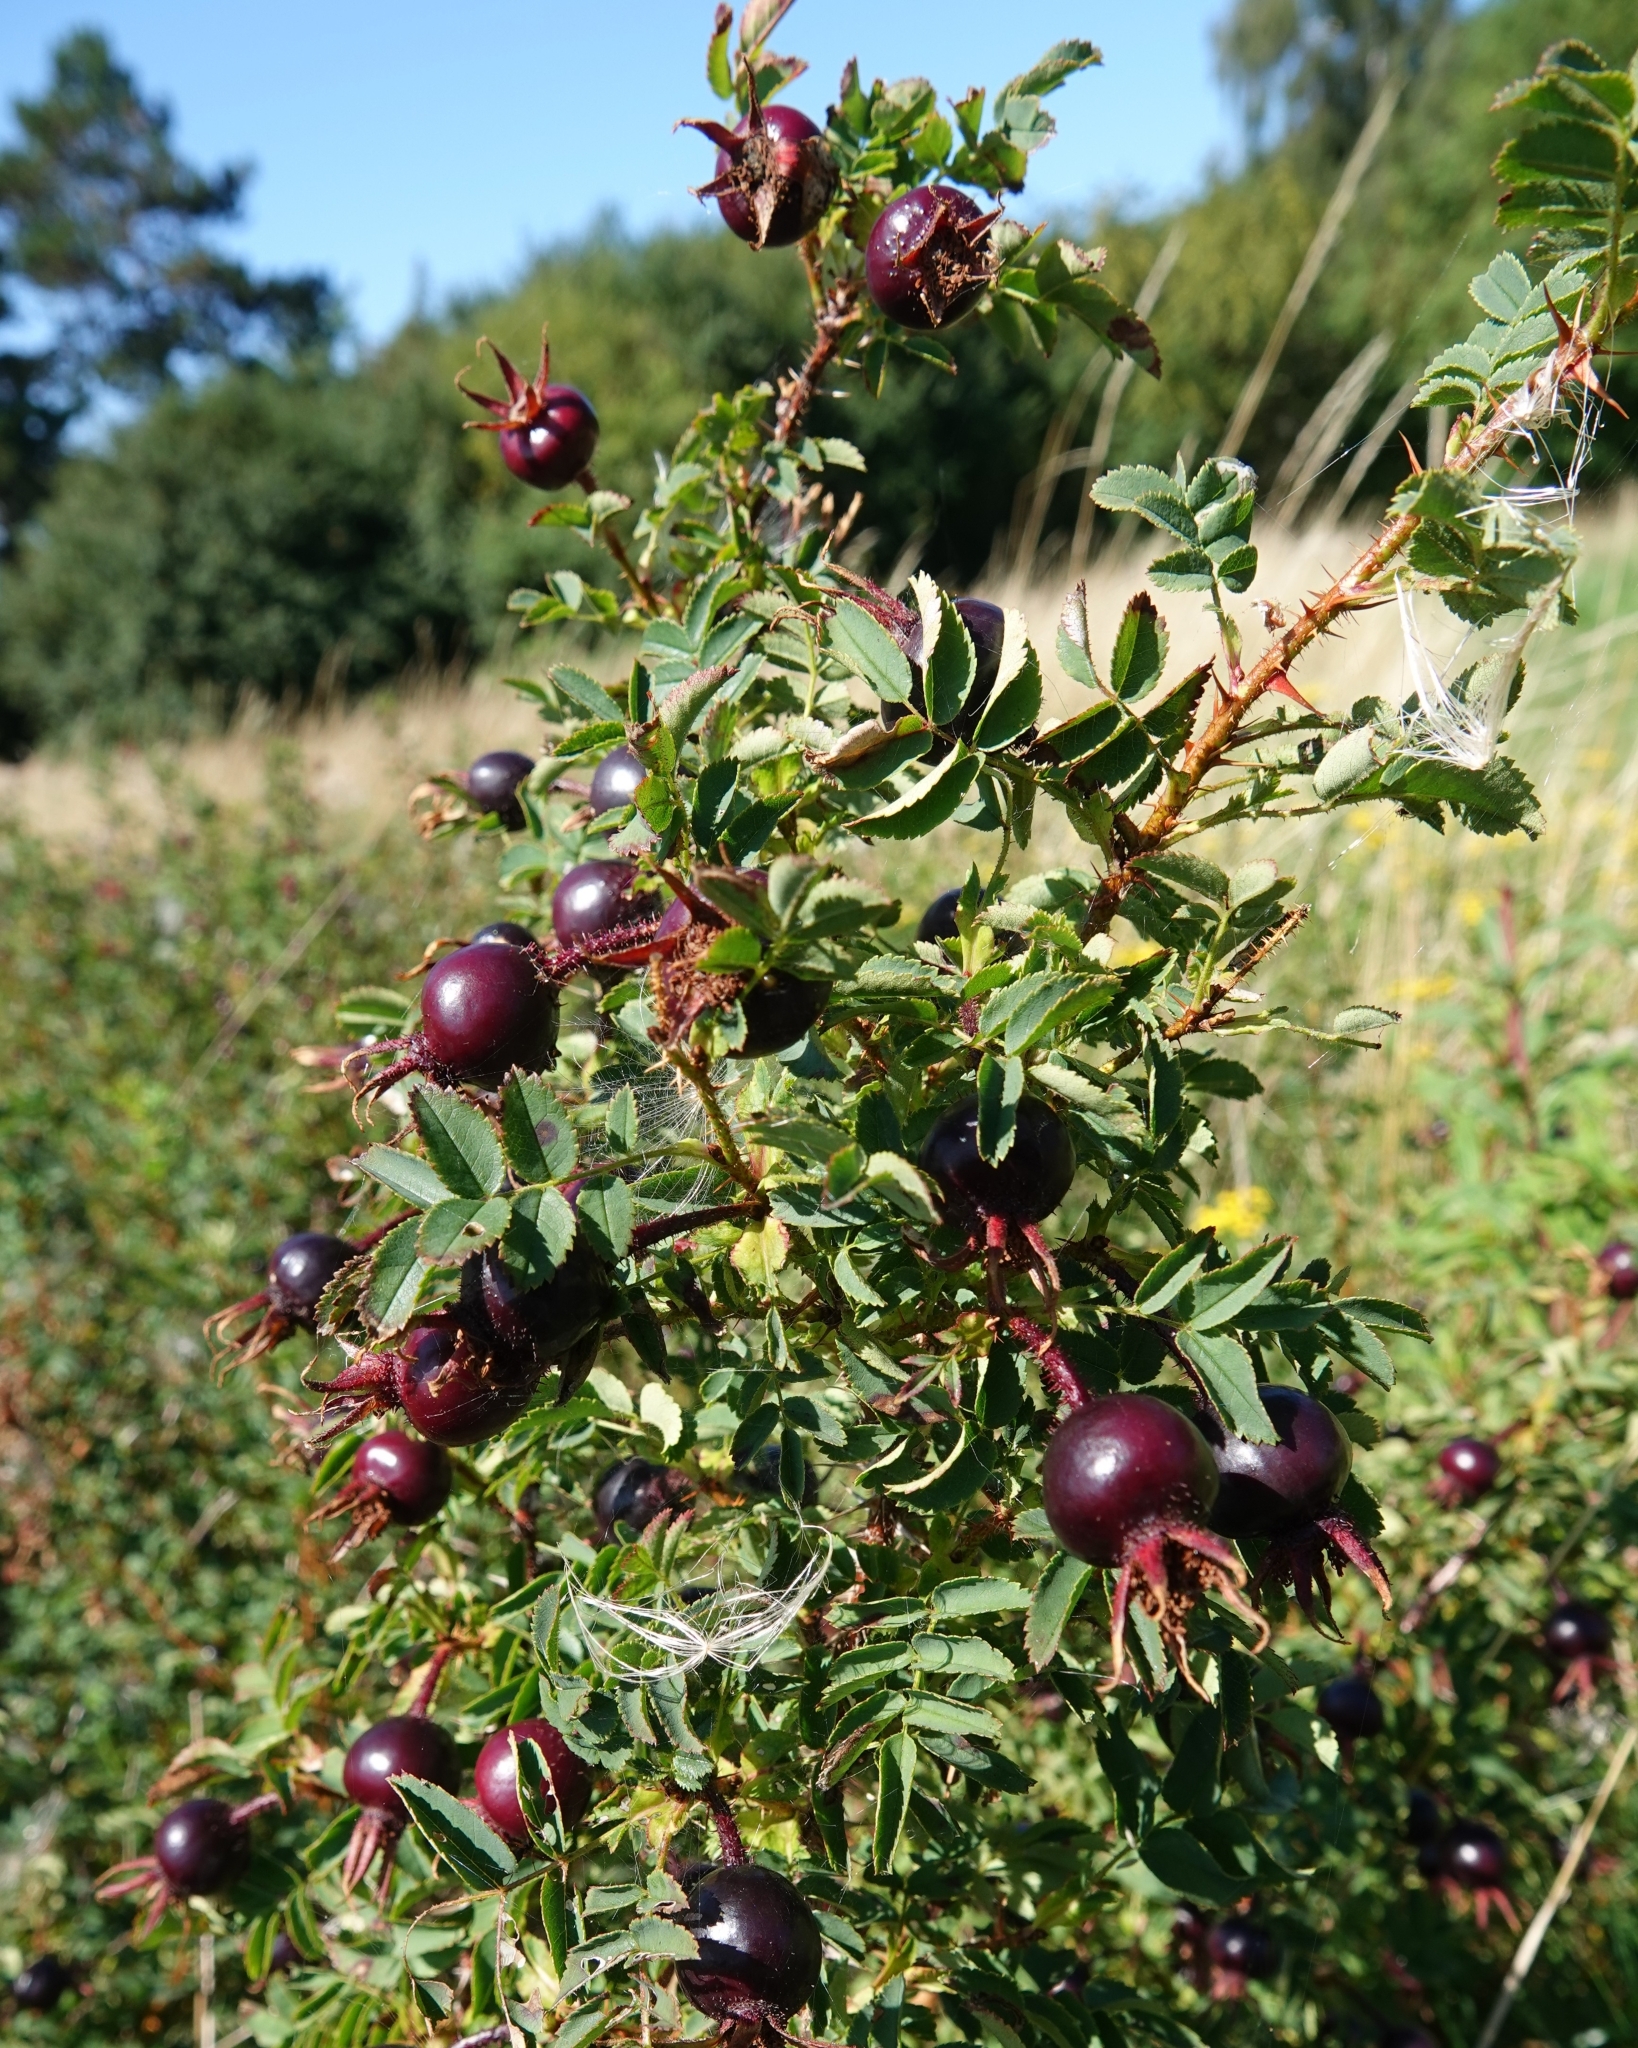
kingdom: Plantae
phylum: Tracheophyta
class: Magnoliopsida
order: Rosales
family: Rosaceae
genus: Rosa
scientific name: Rosa spinosissima
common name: Burnet rose
